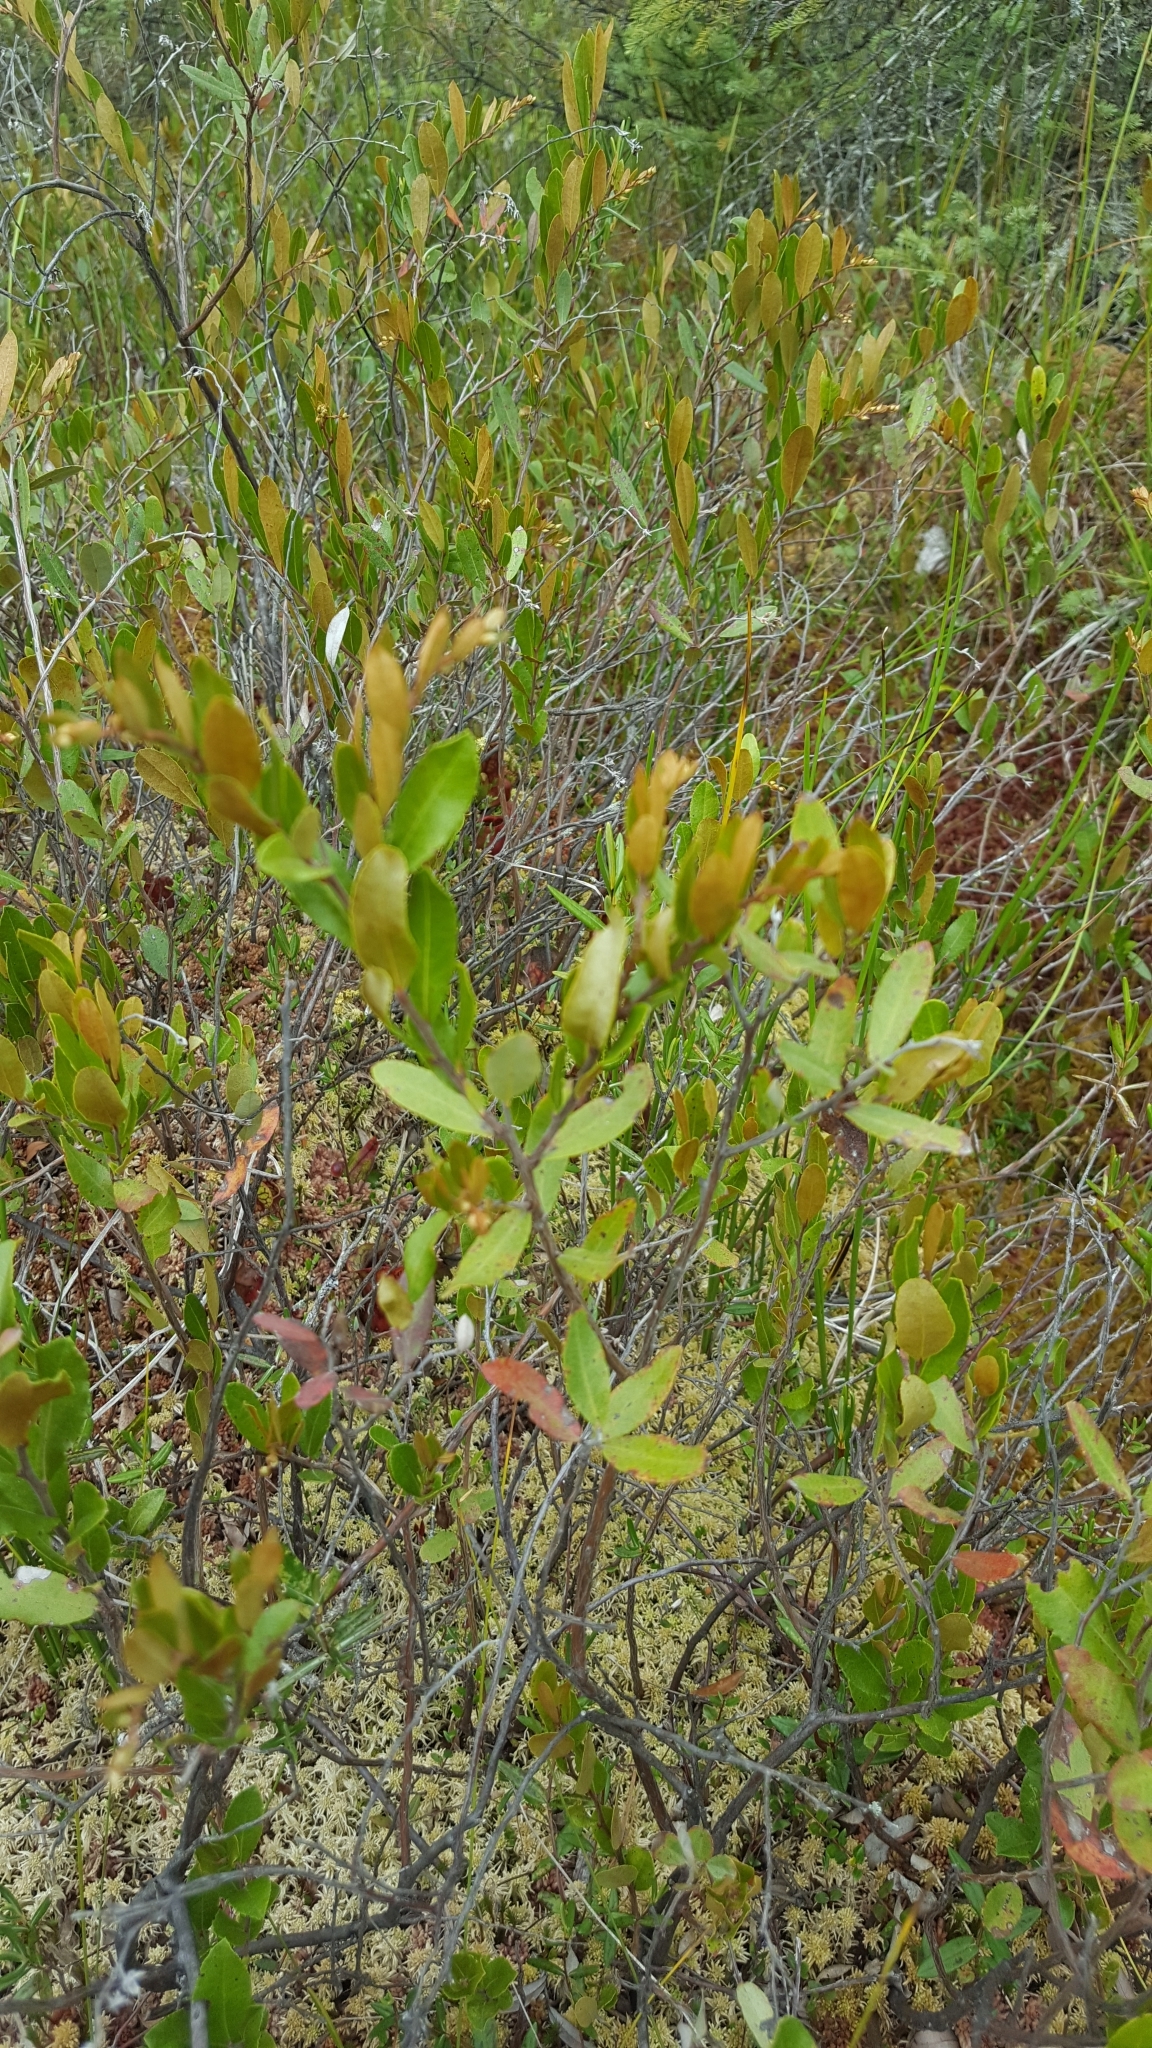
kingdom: Plantae
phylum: Tracheophyta
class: Magnoliopsida
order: Ericales
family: Ericaceae
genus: Chamaedaphne
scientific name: Chamaedaphne calyculata
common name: Leatherleaf
